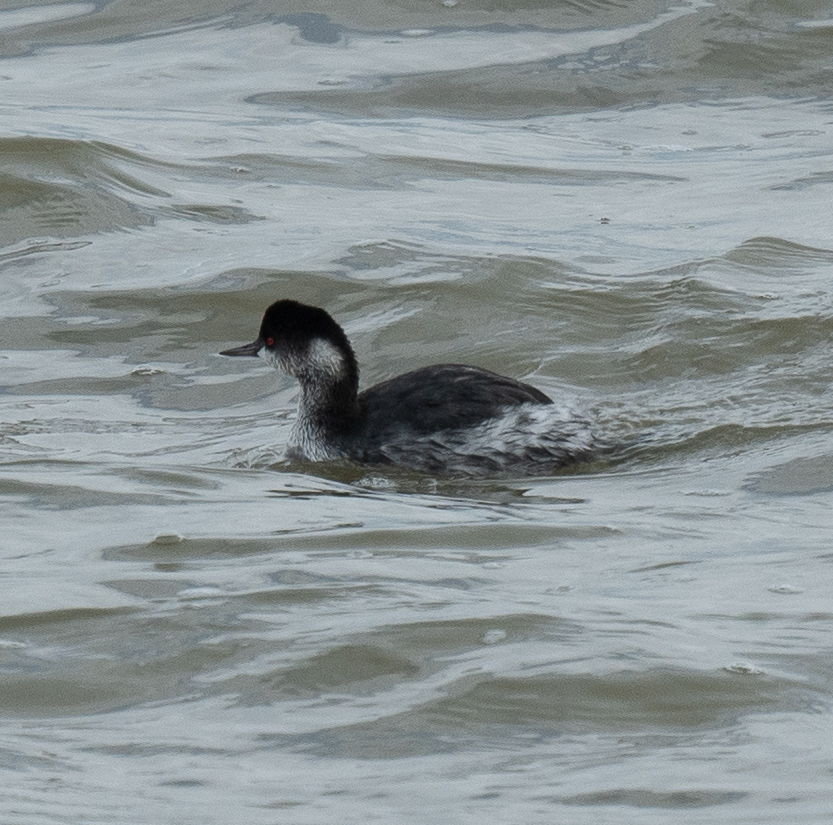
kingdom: Animalia
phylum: Chordata
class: Aves
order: Podicipediformes
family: Podicipedidae
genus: Podiceps
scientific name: Podiceps nigricollis
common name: Black-necked grebe
